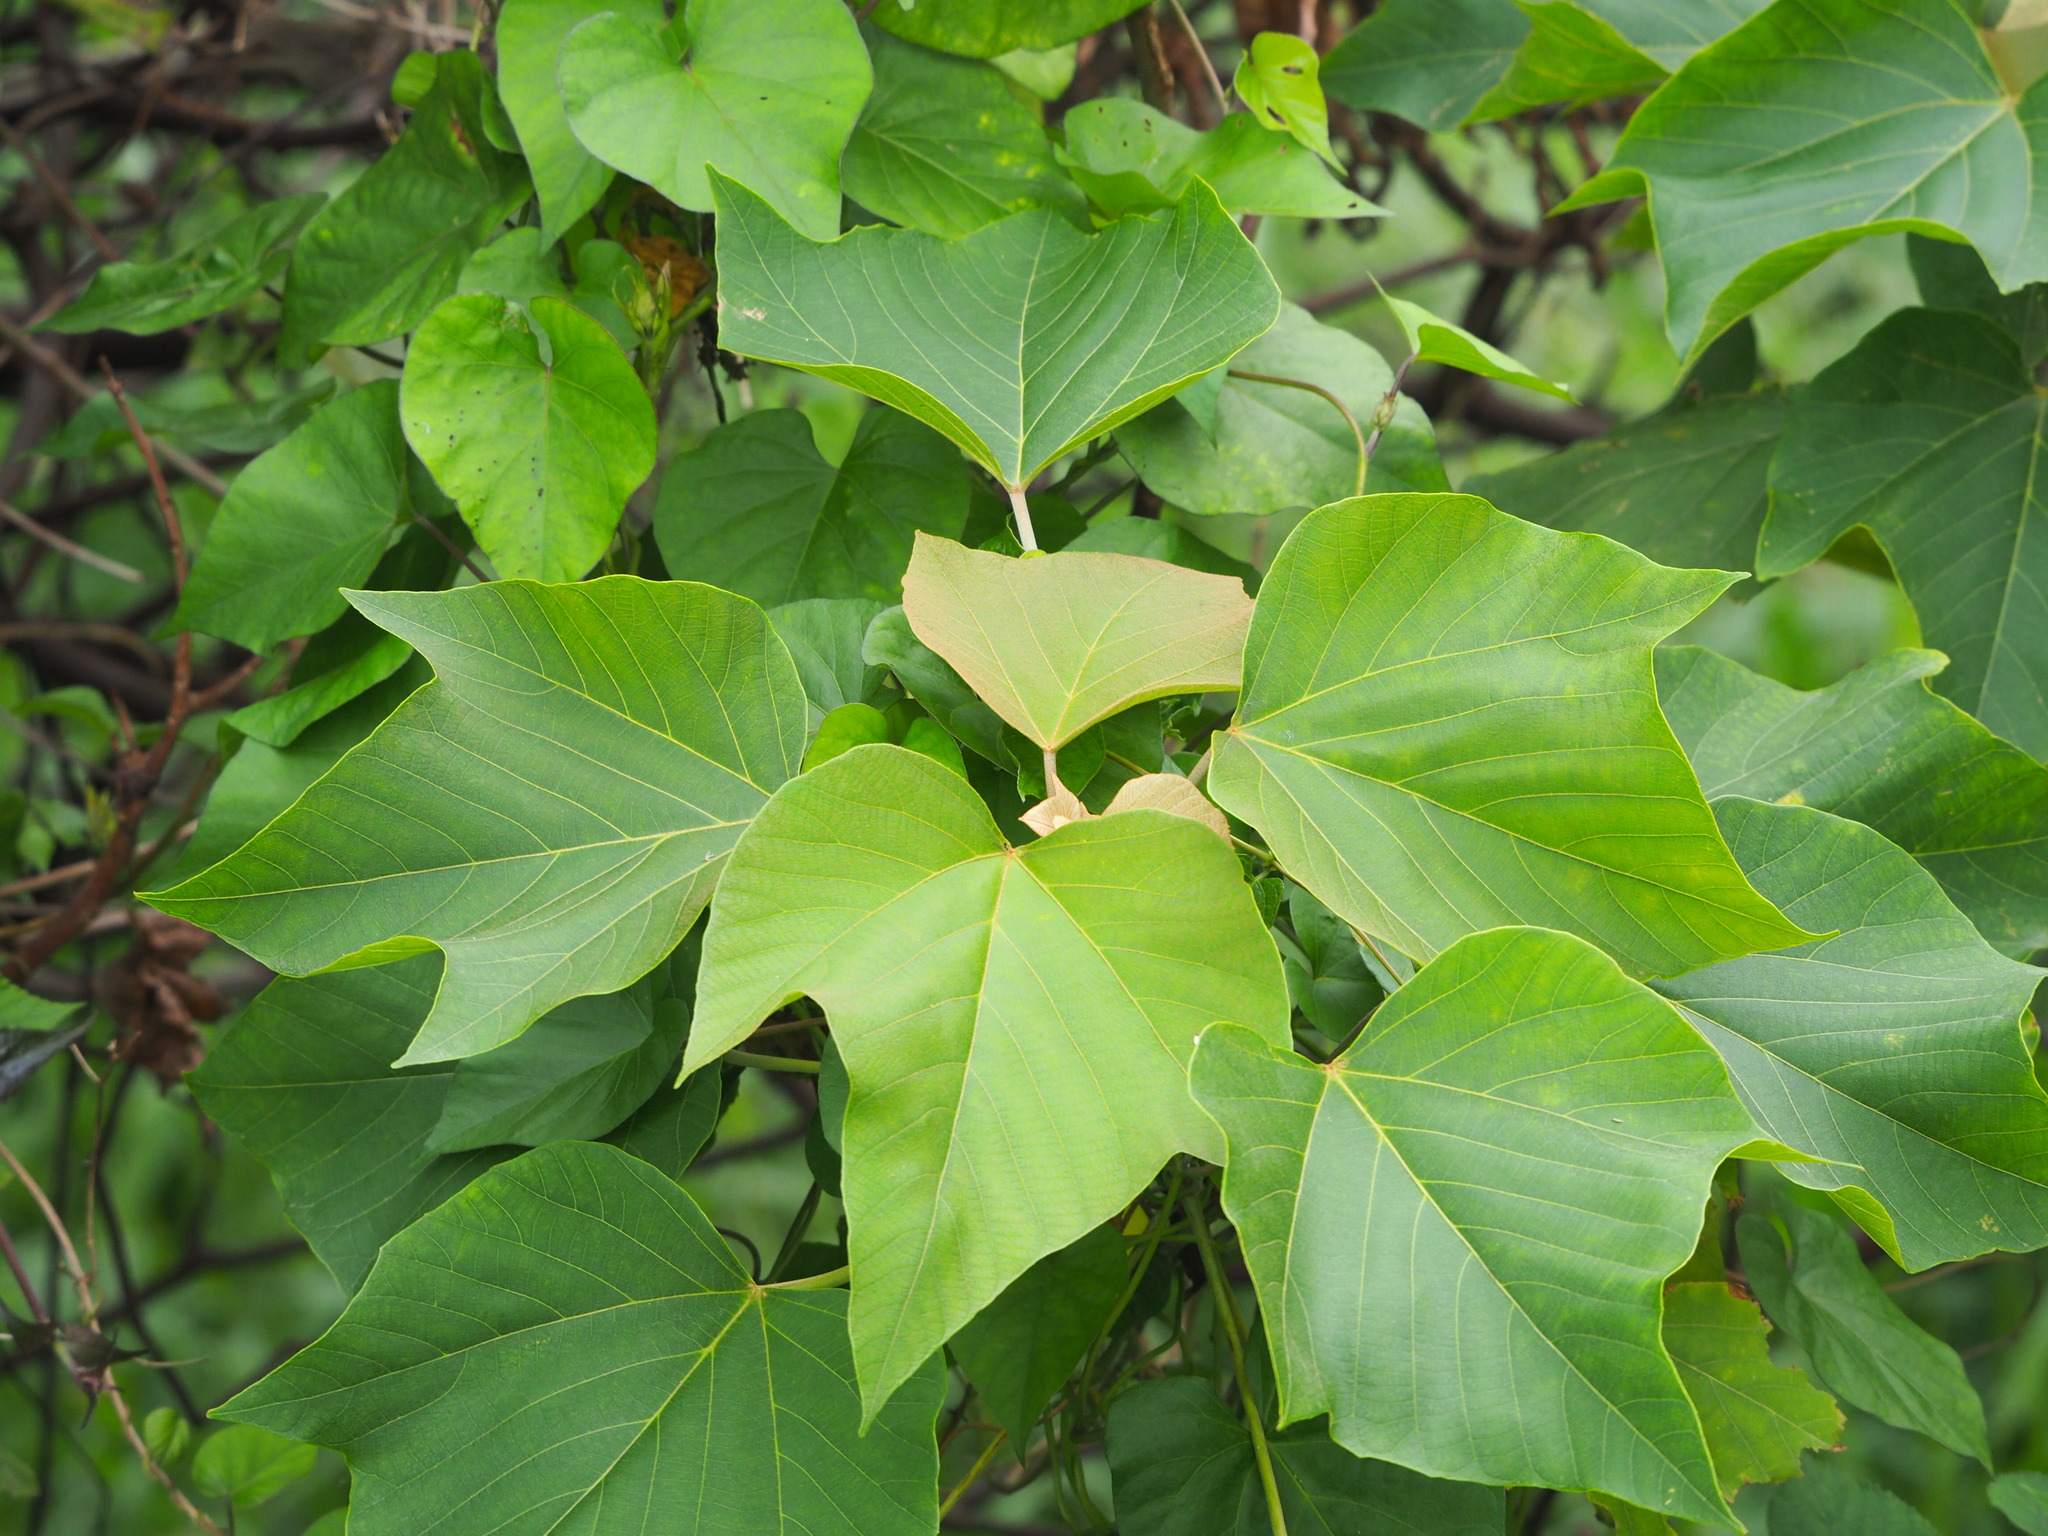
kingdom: Plantae
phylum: Tracheophyta
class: Magnoliopsida
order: Malpighiales
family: Euphorbiaceae
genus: Mallotus
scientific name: Mallotus japonicus
